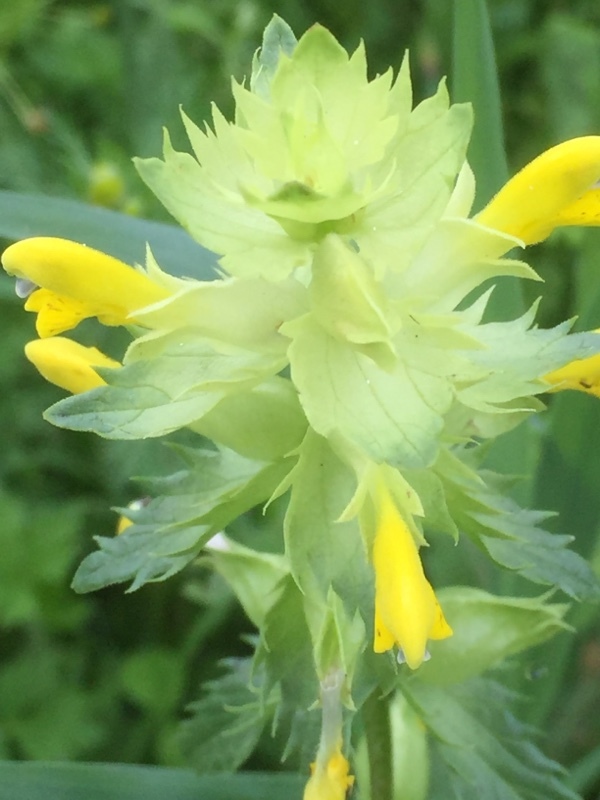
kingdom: Plantae
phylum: Tracheophyta
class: Magnoliopsida
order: Lamiales
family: Orobanchaceae
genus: Rhinanthus
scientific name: Rhinanthus serotinus
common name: Late-flowering yellow rattle
